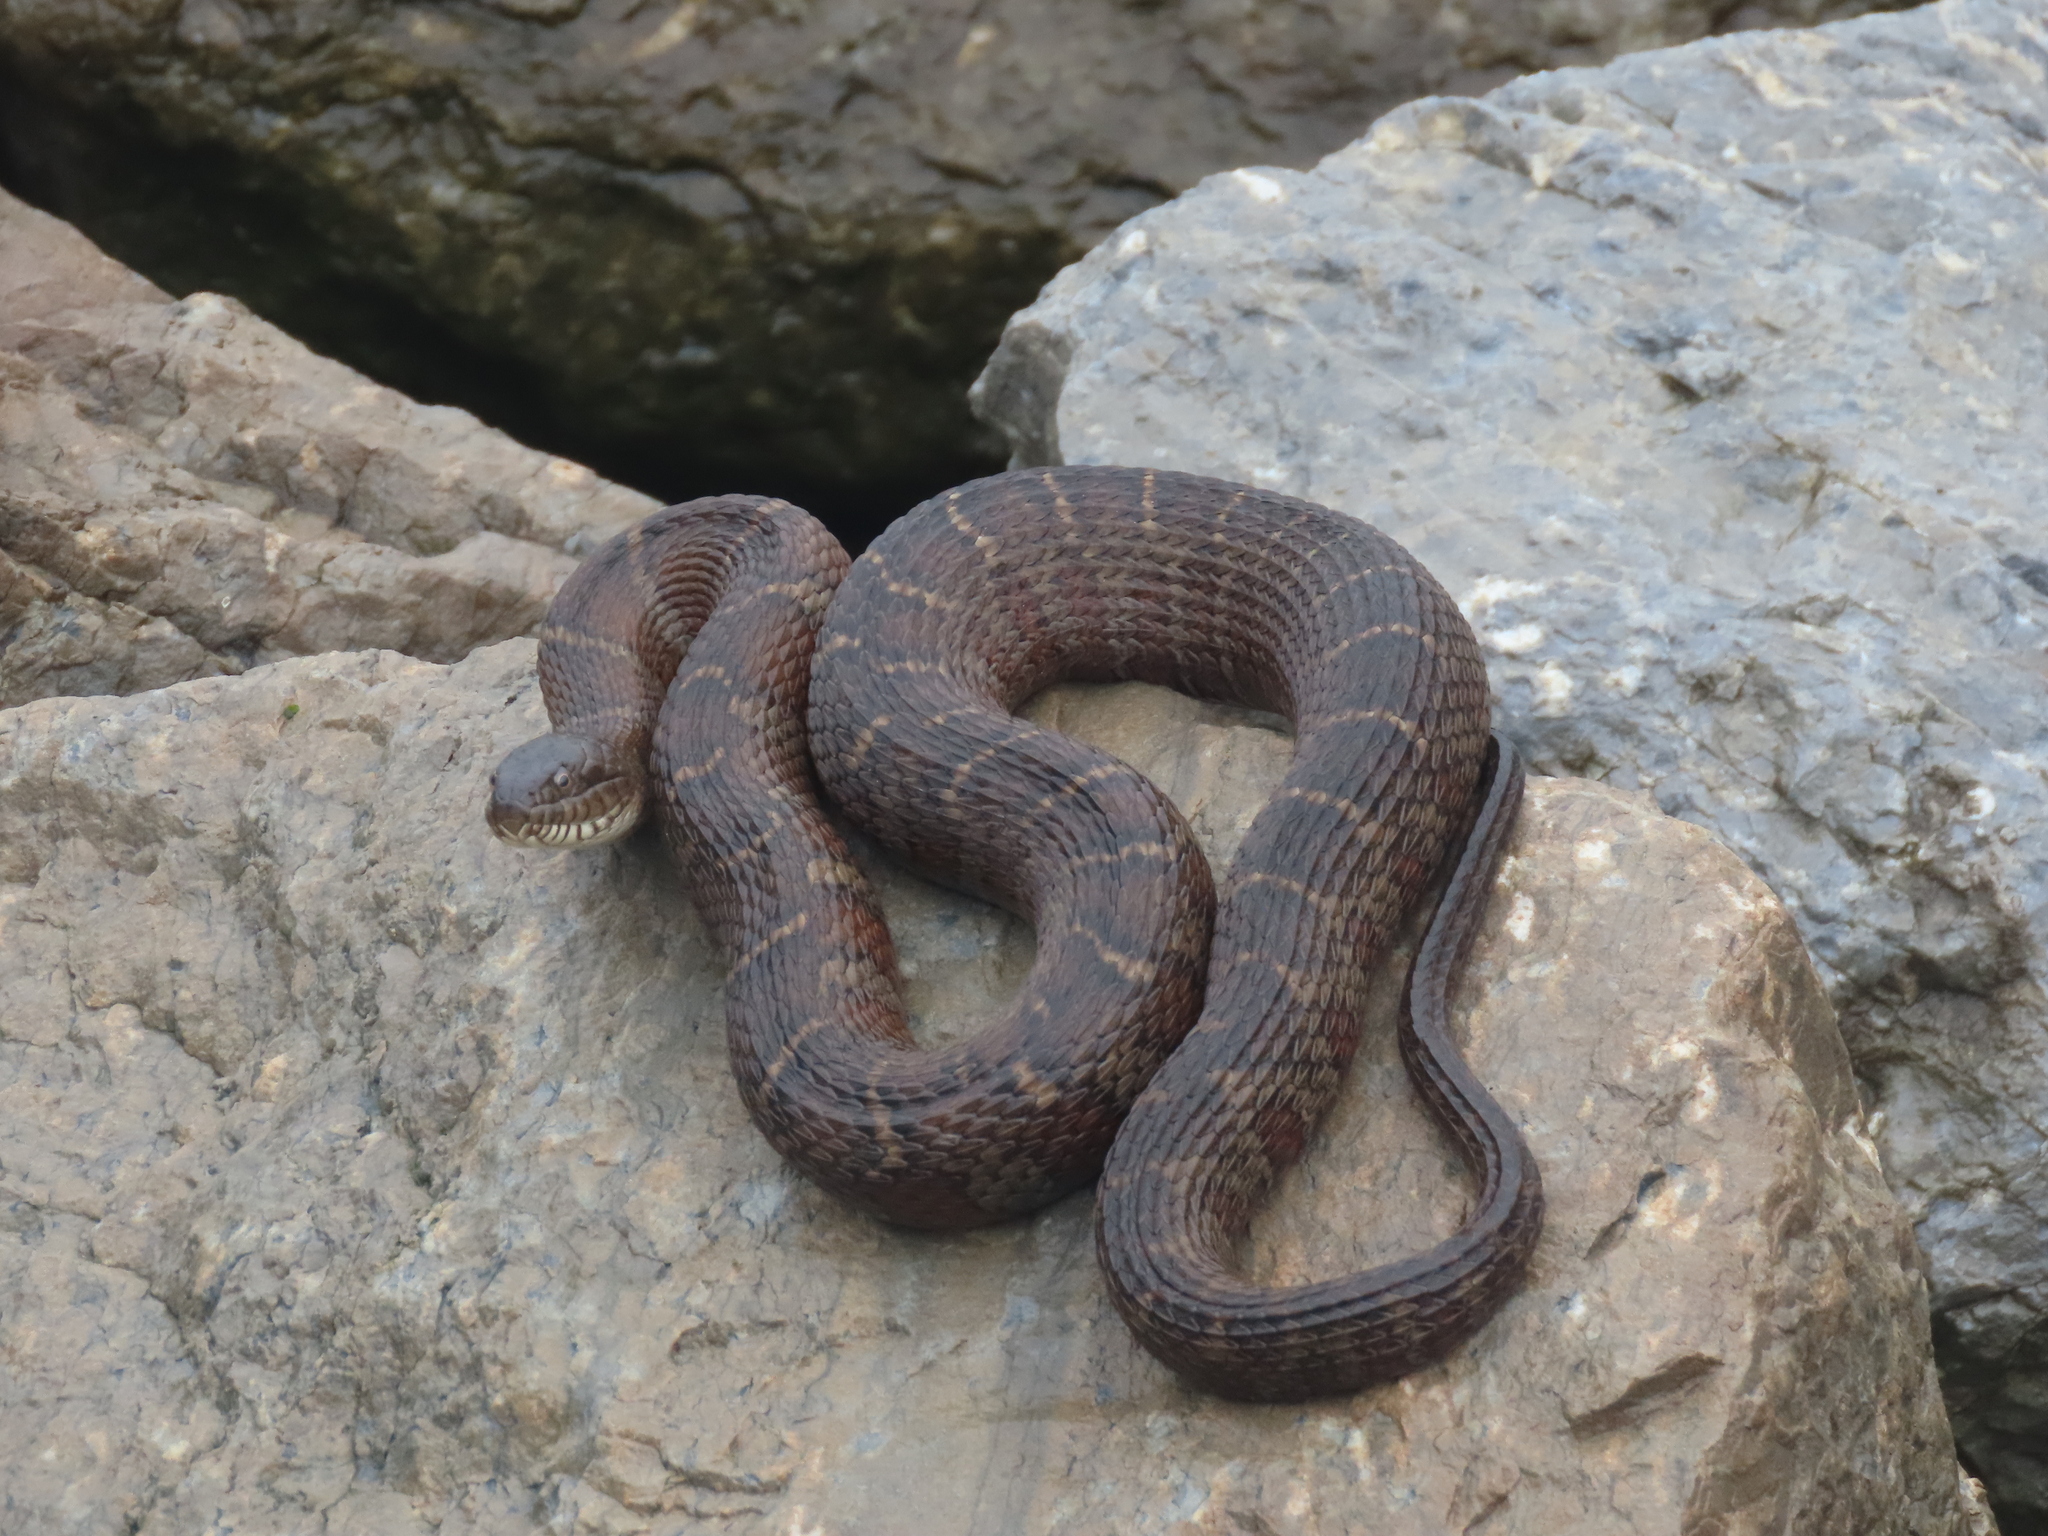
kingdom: Animalia
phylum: Chordata
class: Squamata
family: Colubridae
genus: Nerodia
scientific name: Nerodia sipedon
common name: Northern water snake
